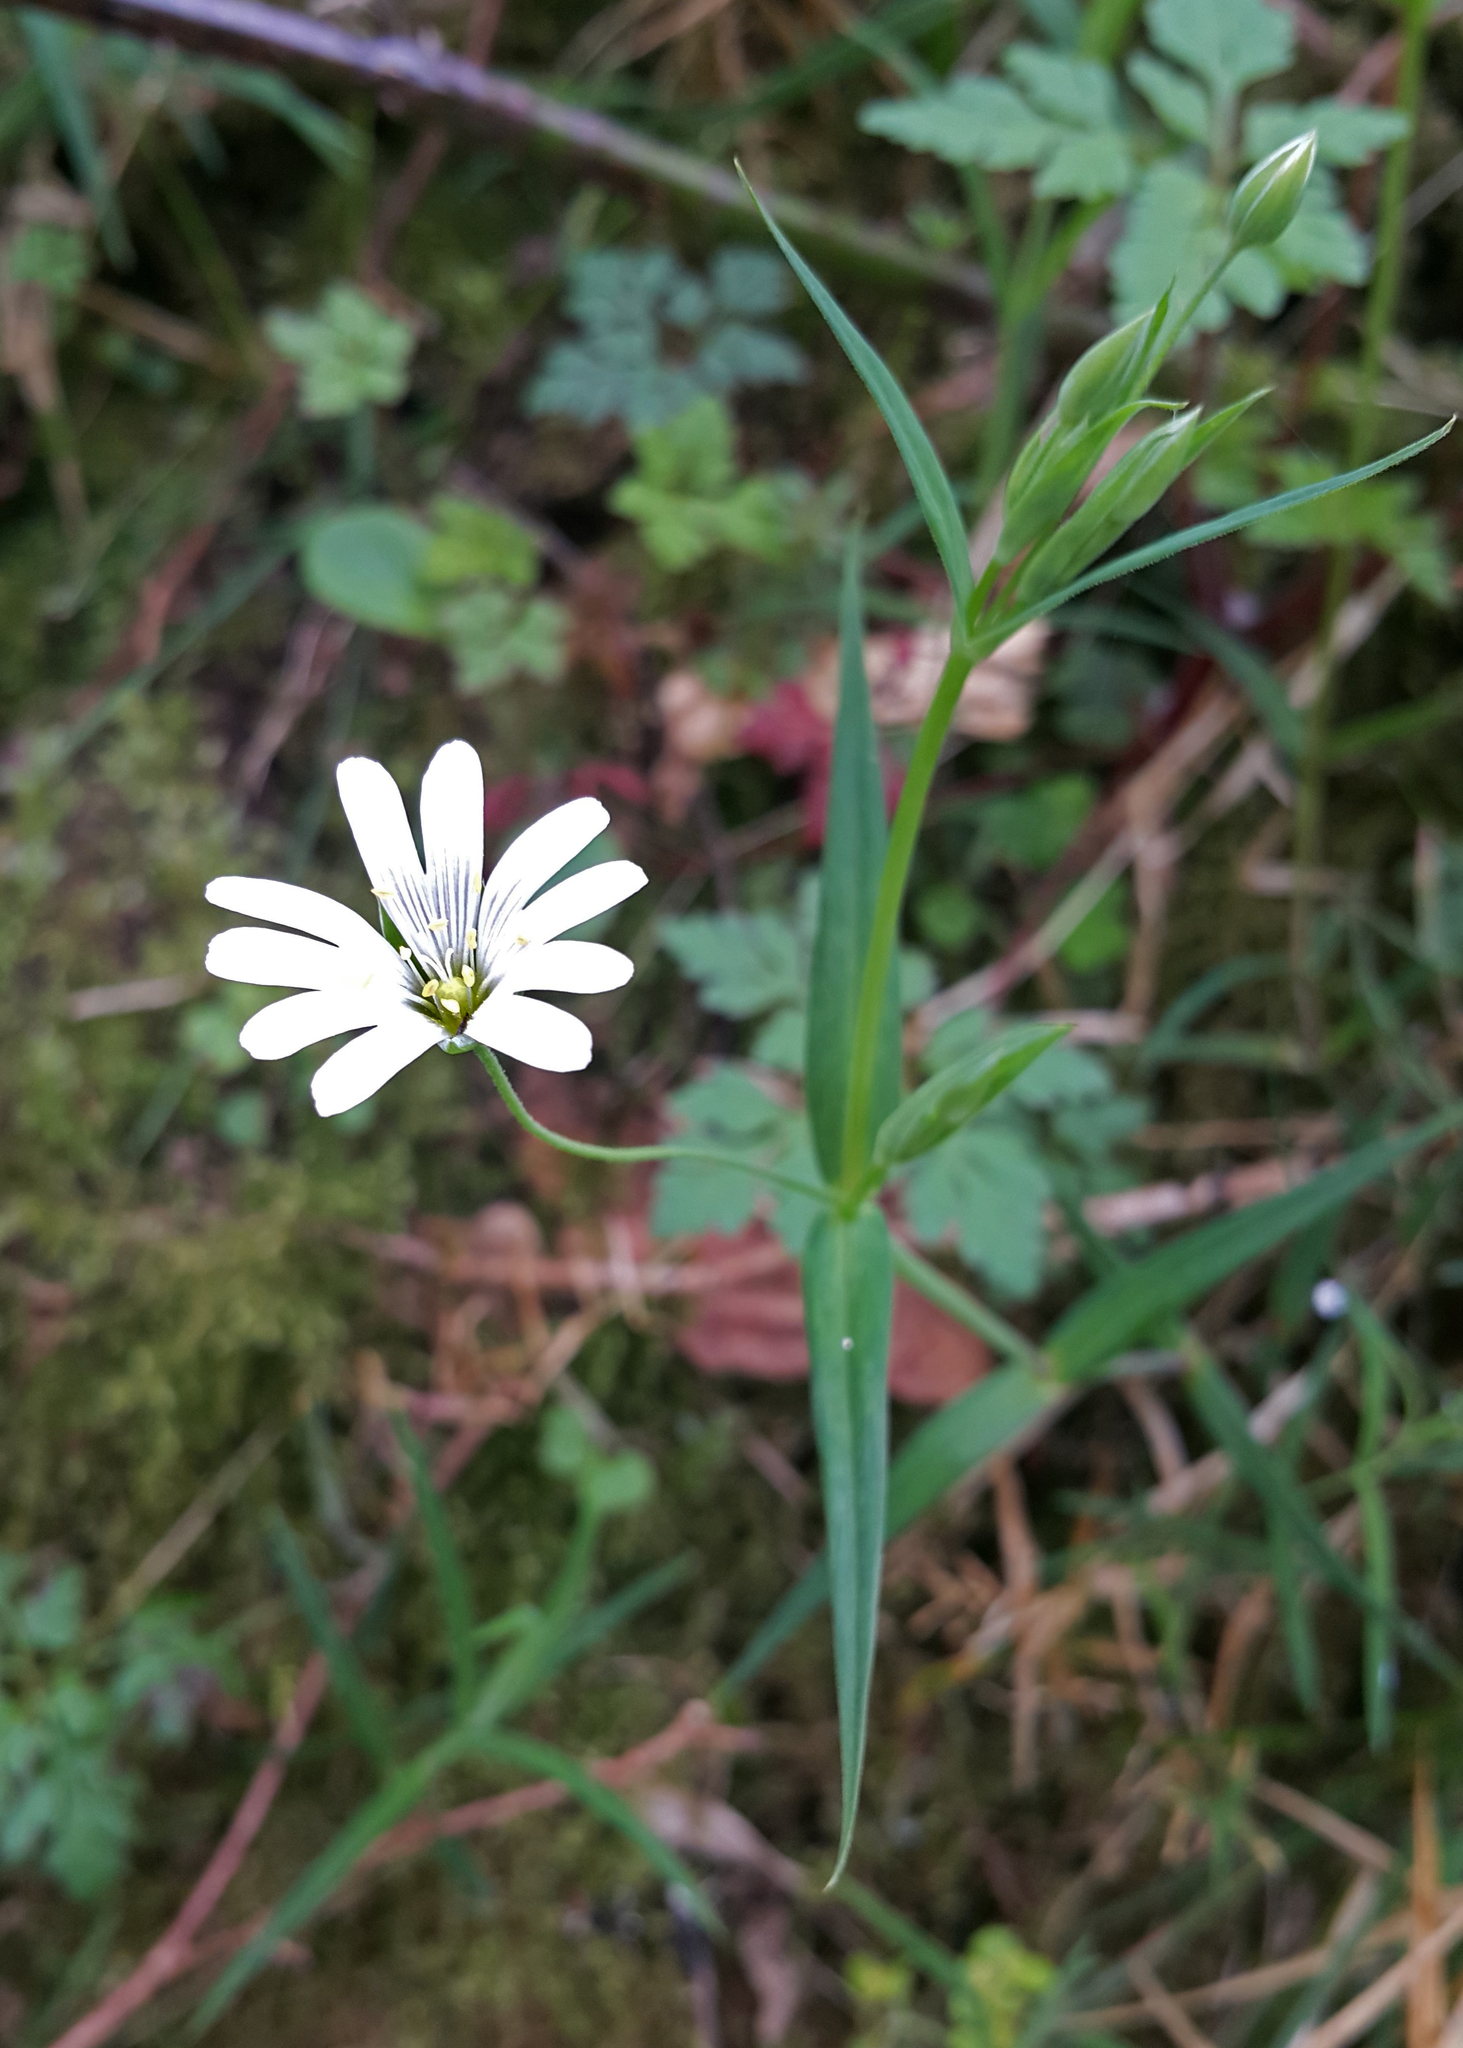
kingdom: Plantae
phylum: Tracheophyta
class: Magnoliopsida
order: Caryophyllales
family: Caryophyllaceae
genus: Rabelera
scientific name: Rabelera holostea
